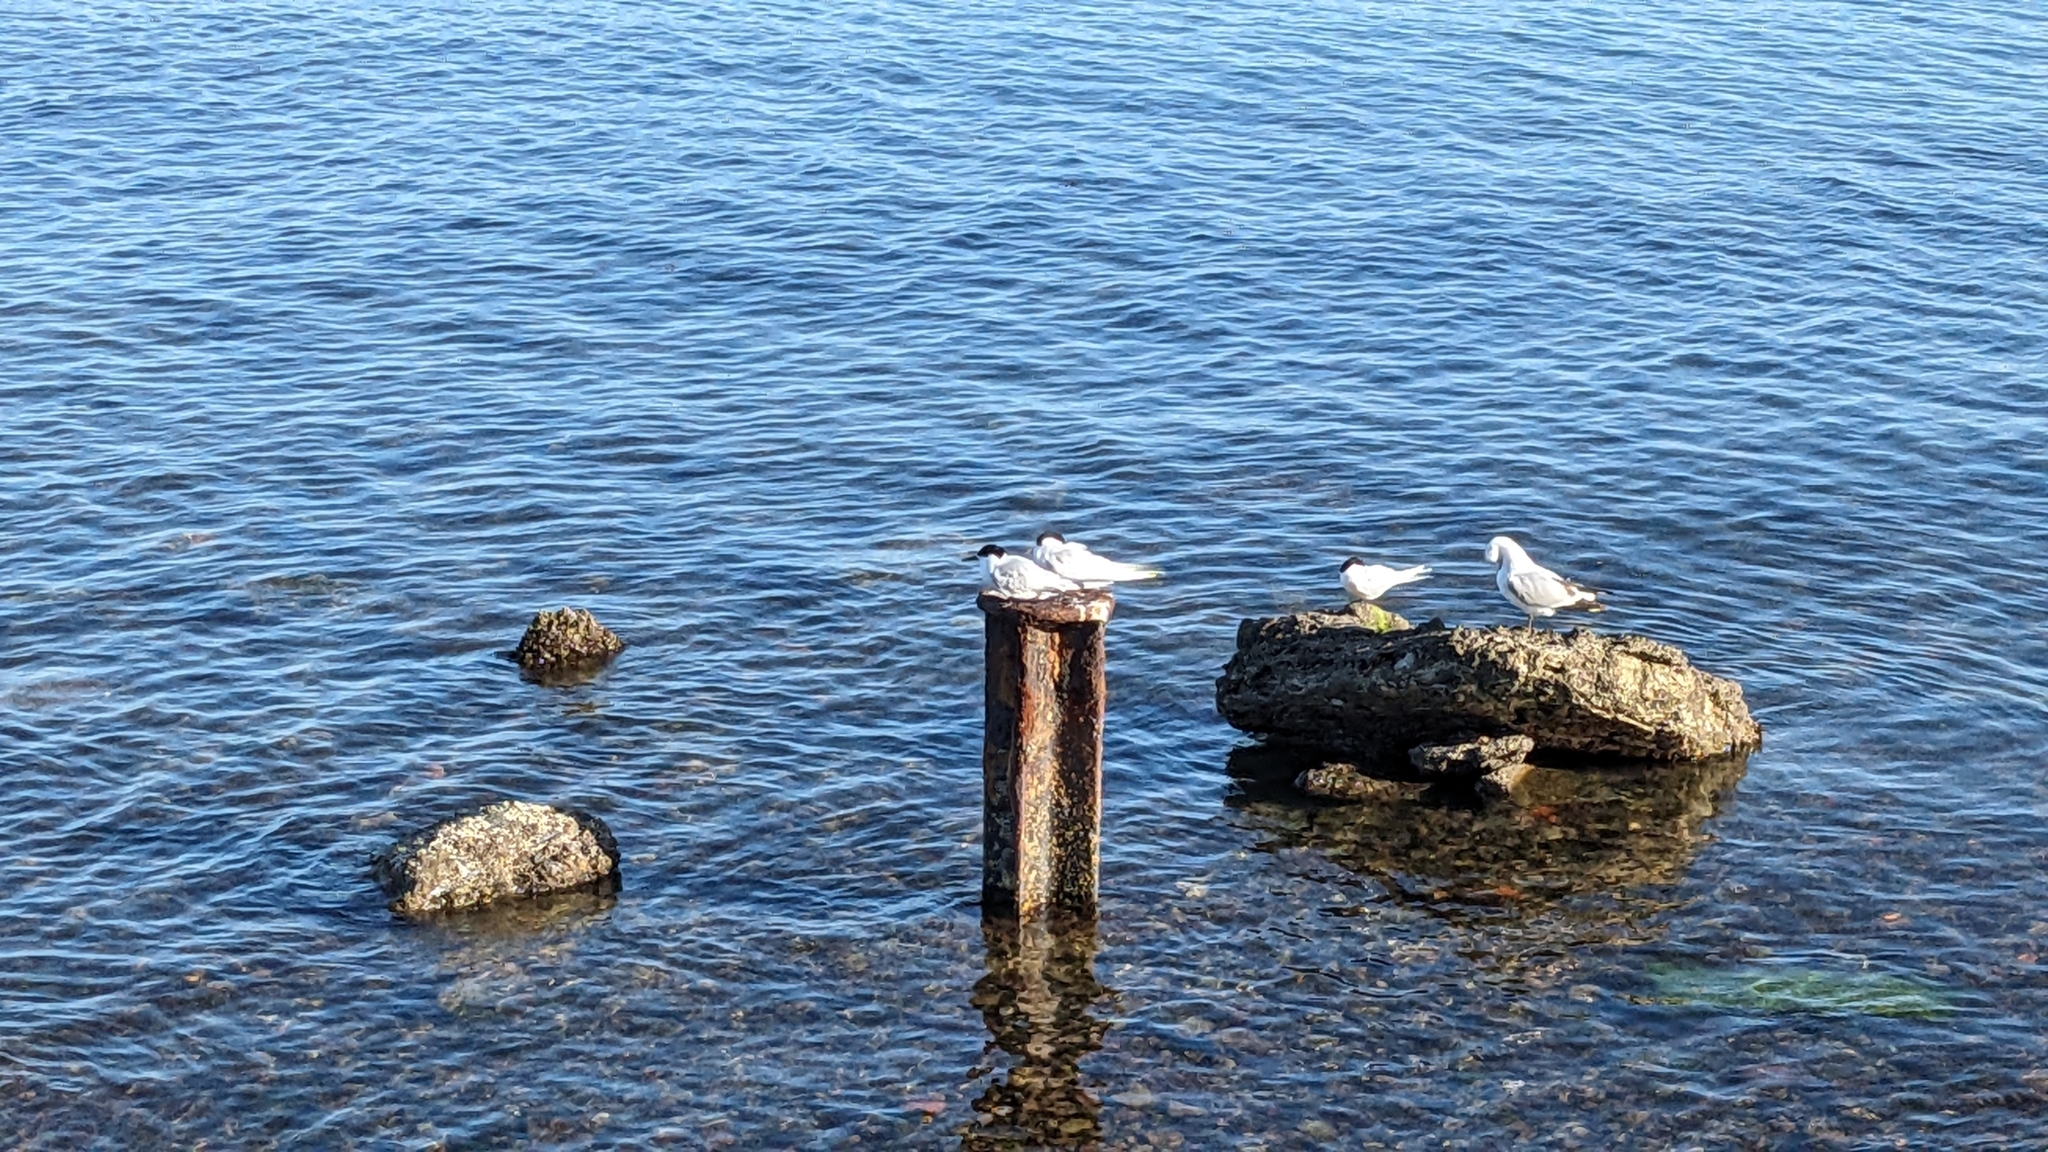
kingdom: Animalia
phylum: Chordata
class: Aves
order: Charadriiformes
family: Laridae
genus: Sterna
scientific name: Sterna striata
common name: White-fronted tern
